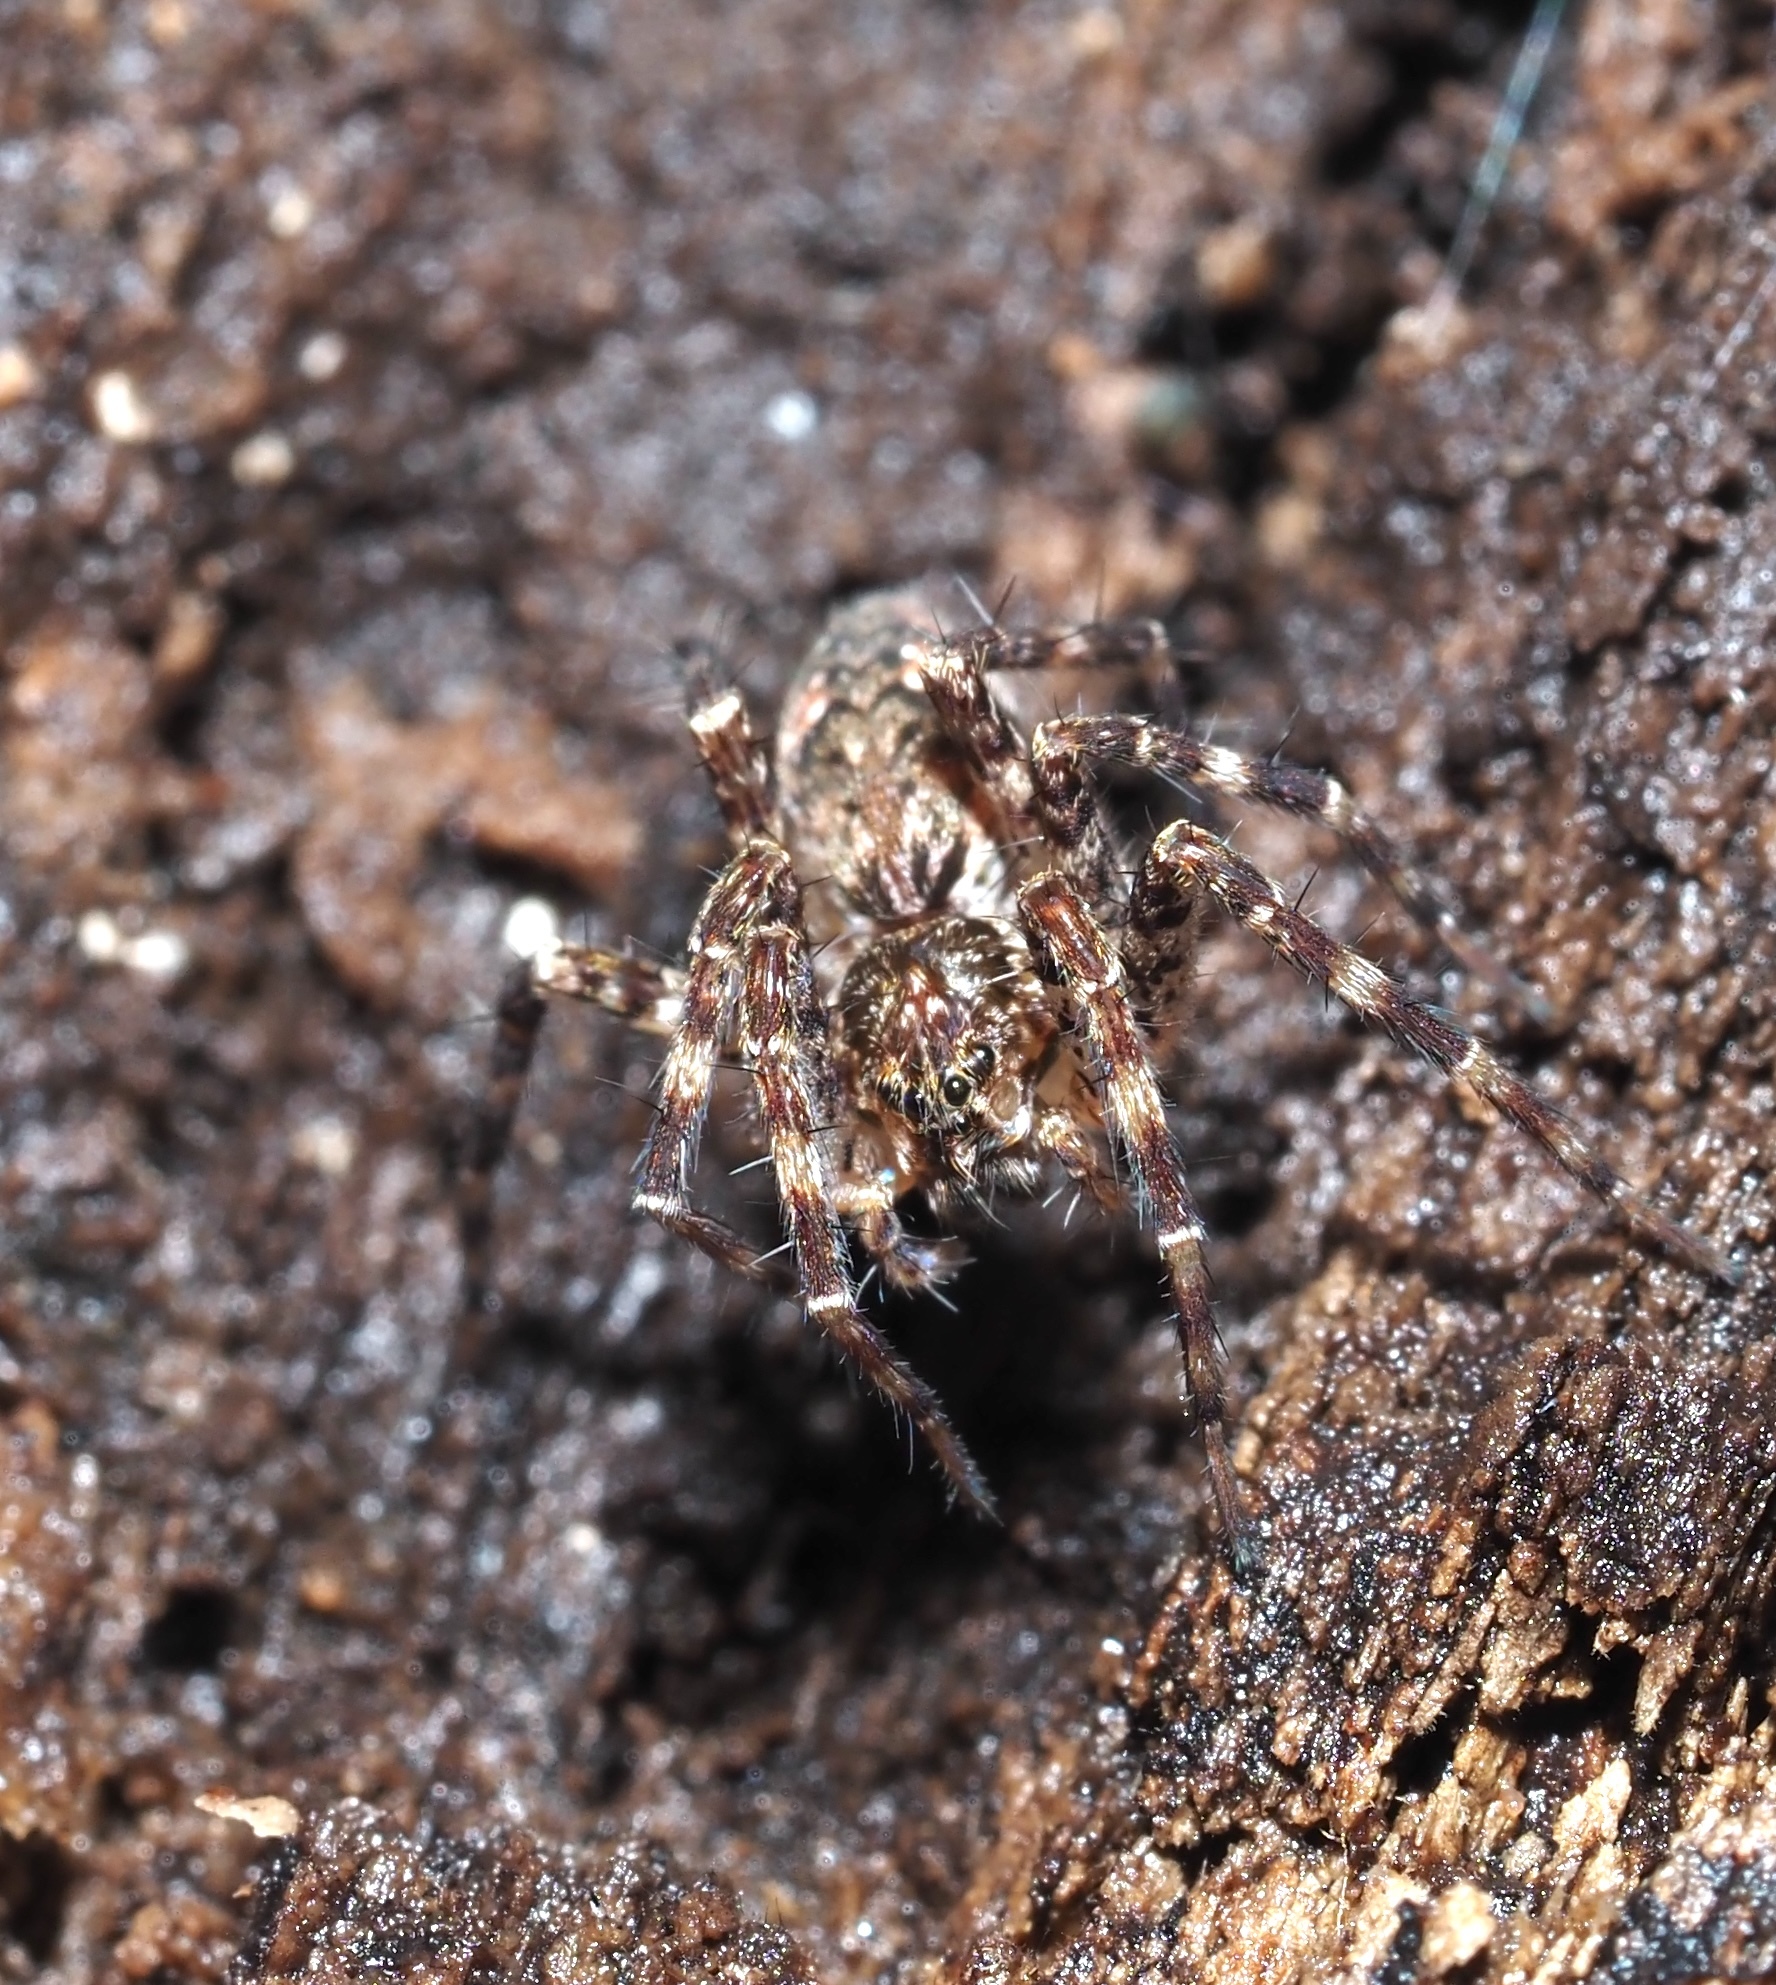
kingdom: Animalia
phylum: Arthropoda
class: Arachnida
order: Araneae
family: Pisauridae
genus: Dolomedes
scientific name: Dolomedes tenebrosus
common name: Dark fishing spider
